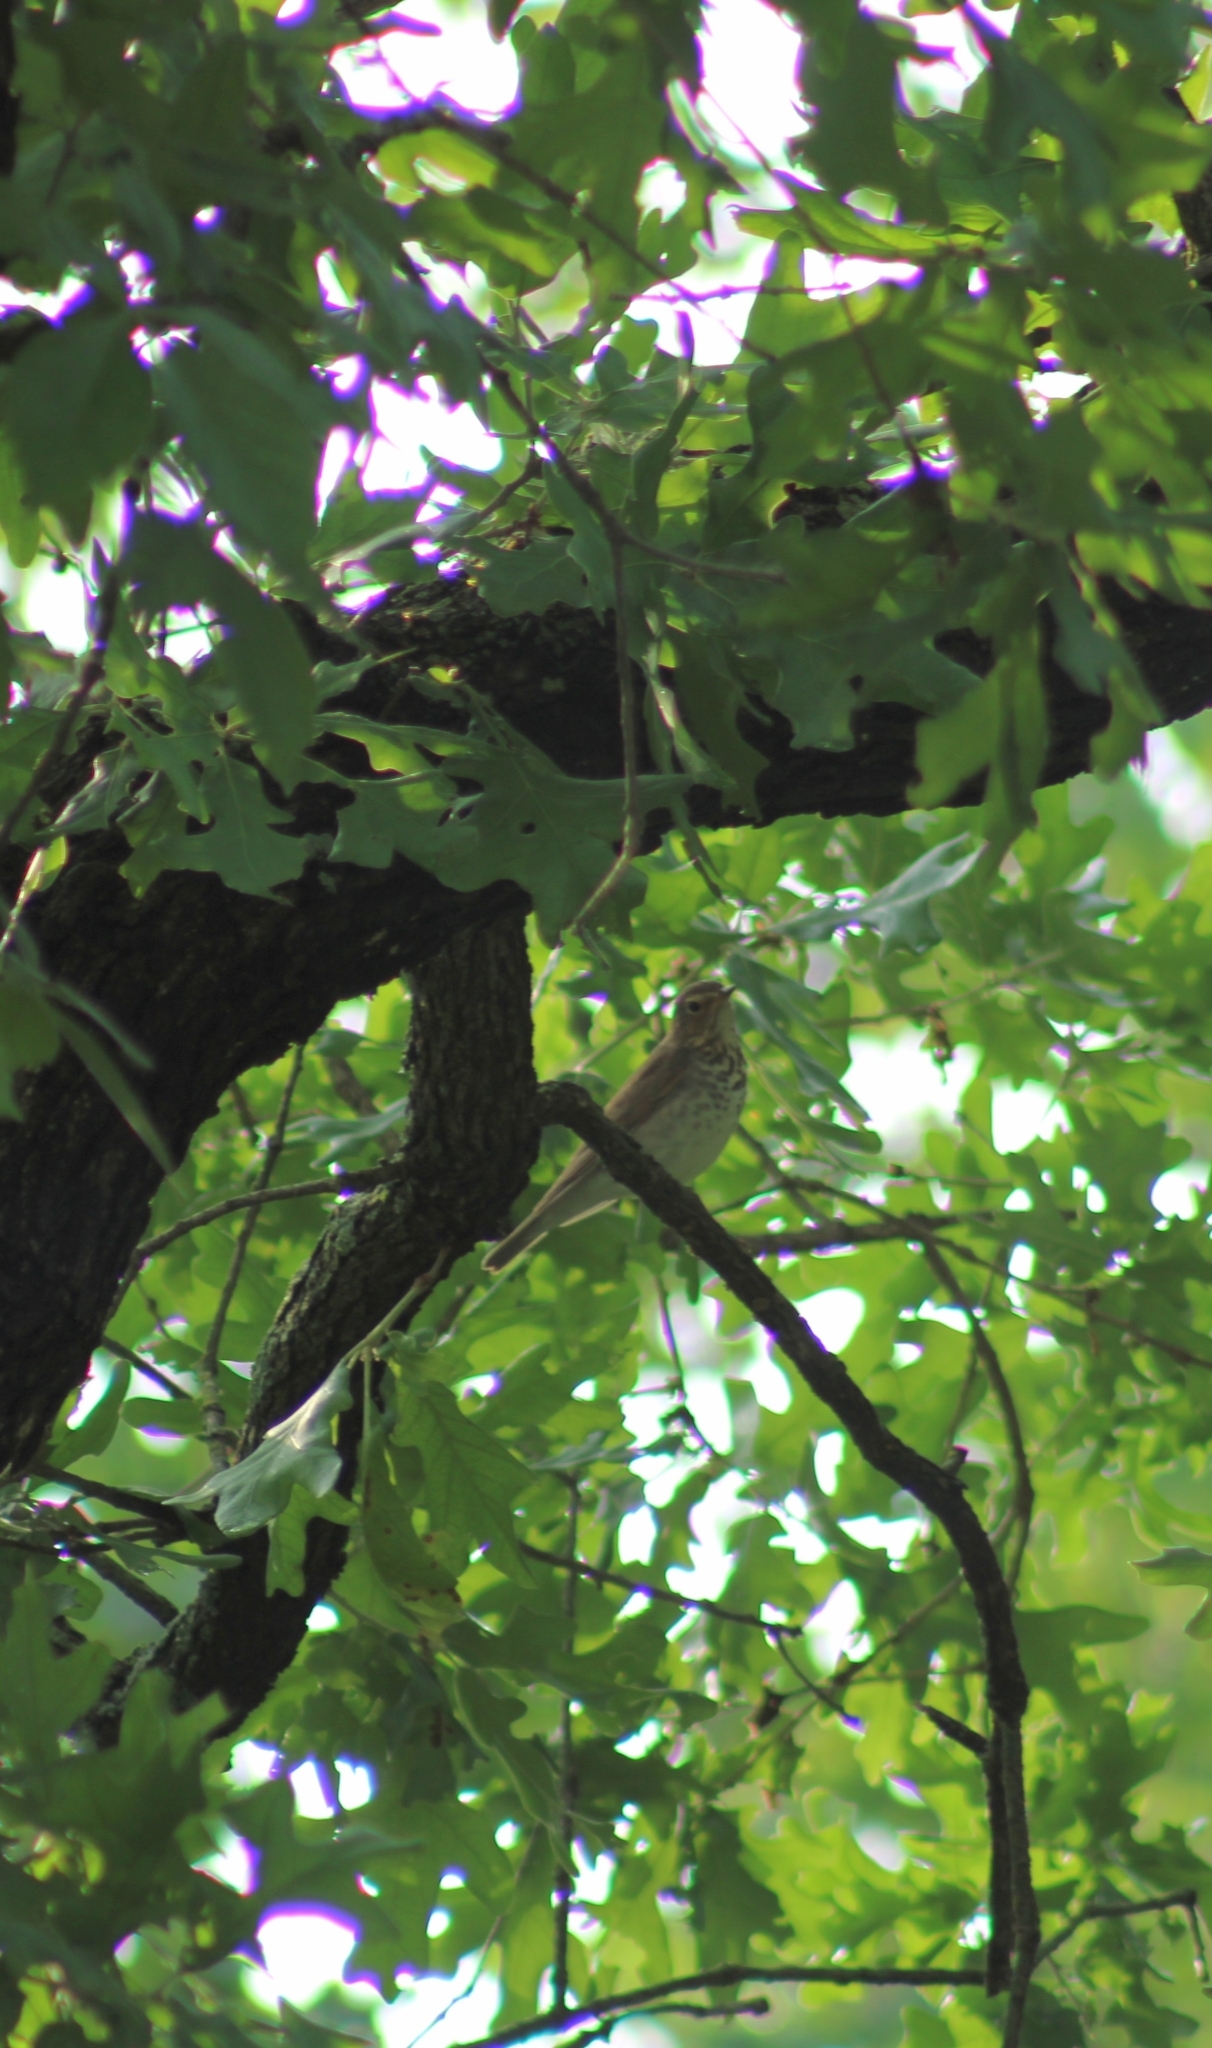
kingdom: Animalia
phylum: Chordata
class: Aves
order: Passeriformes
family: Turdidae
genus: Catharus
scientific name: Catharus ustulatus
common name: Swainson's thrush
